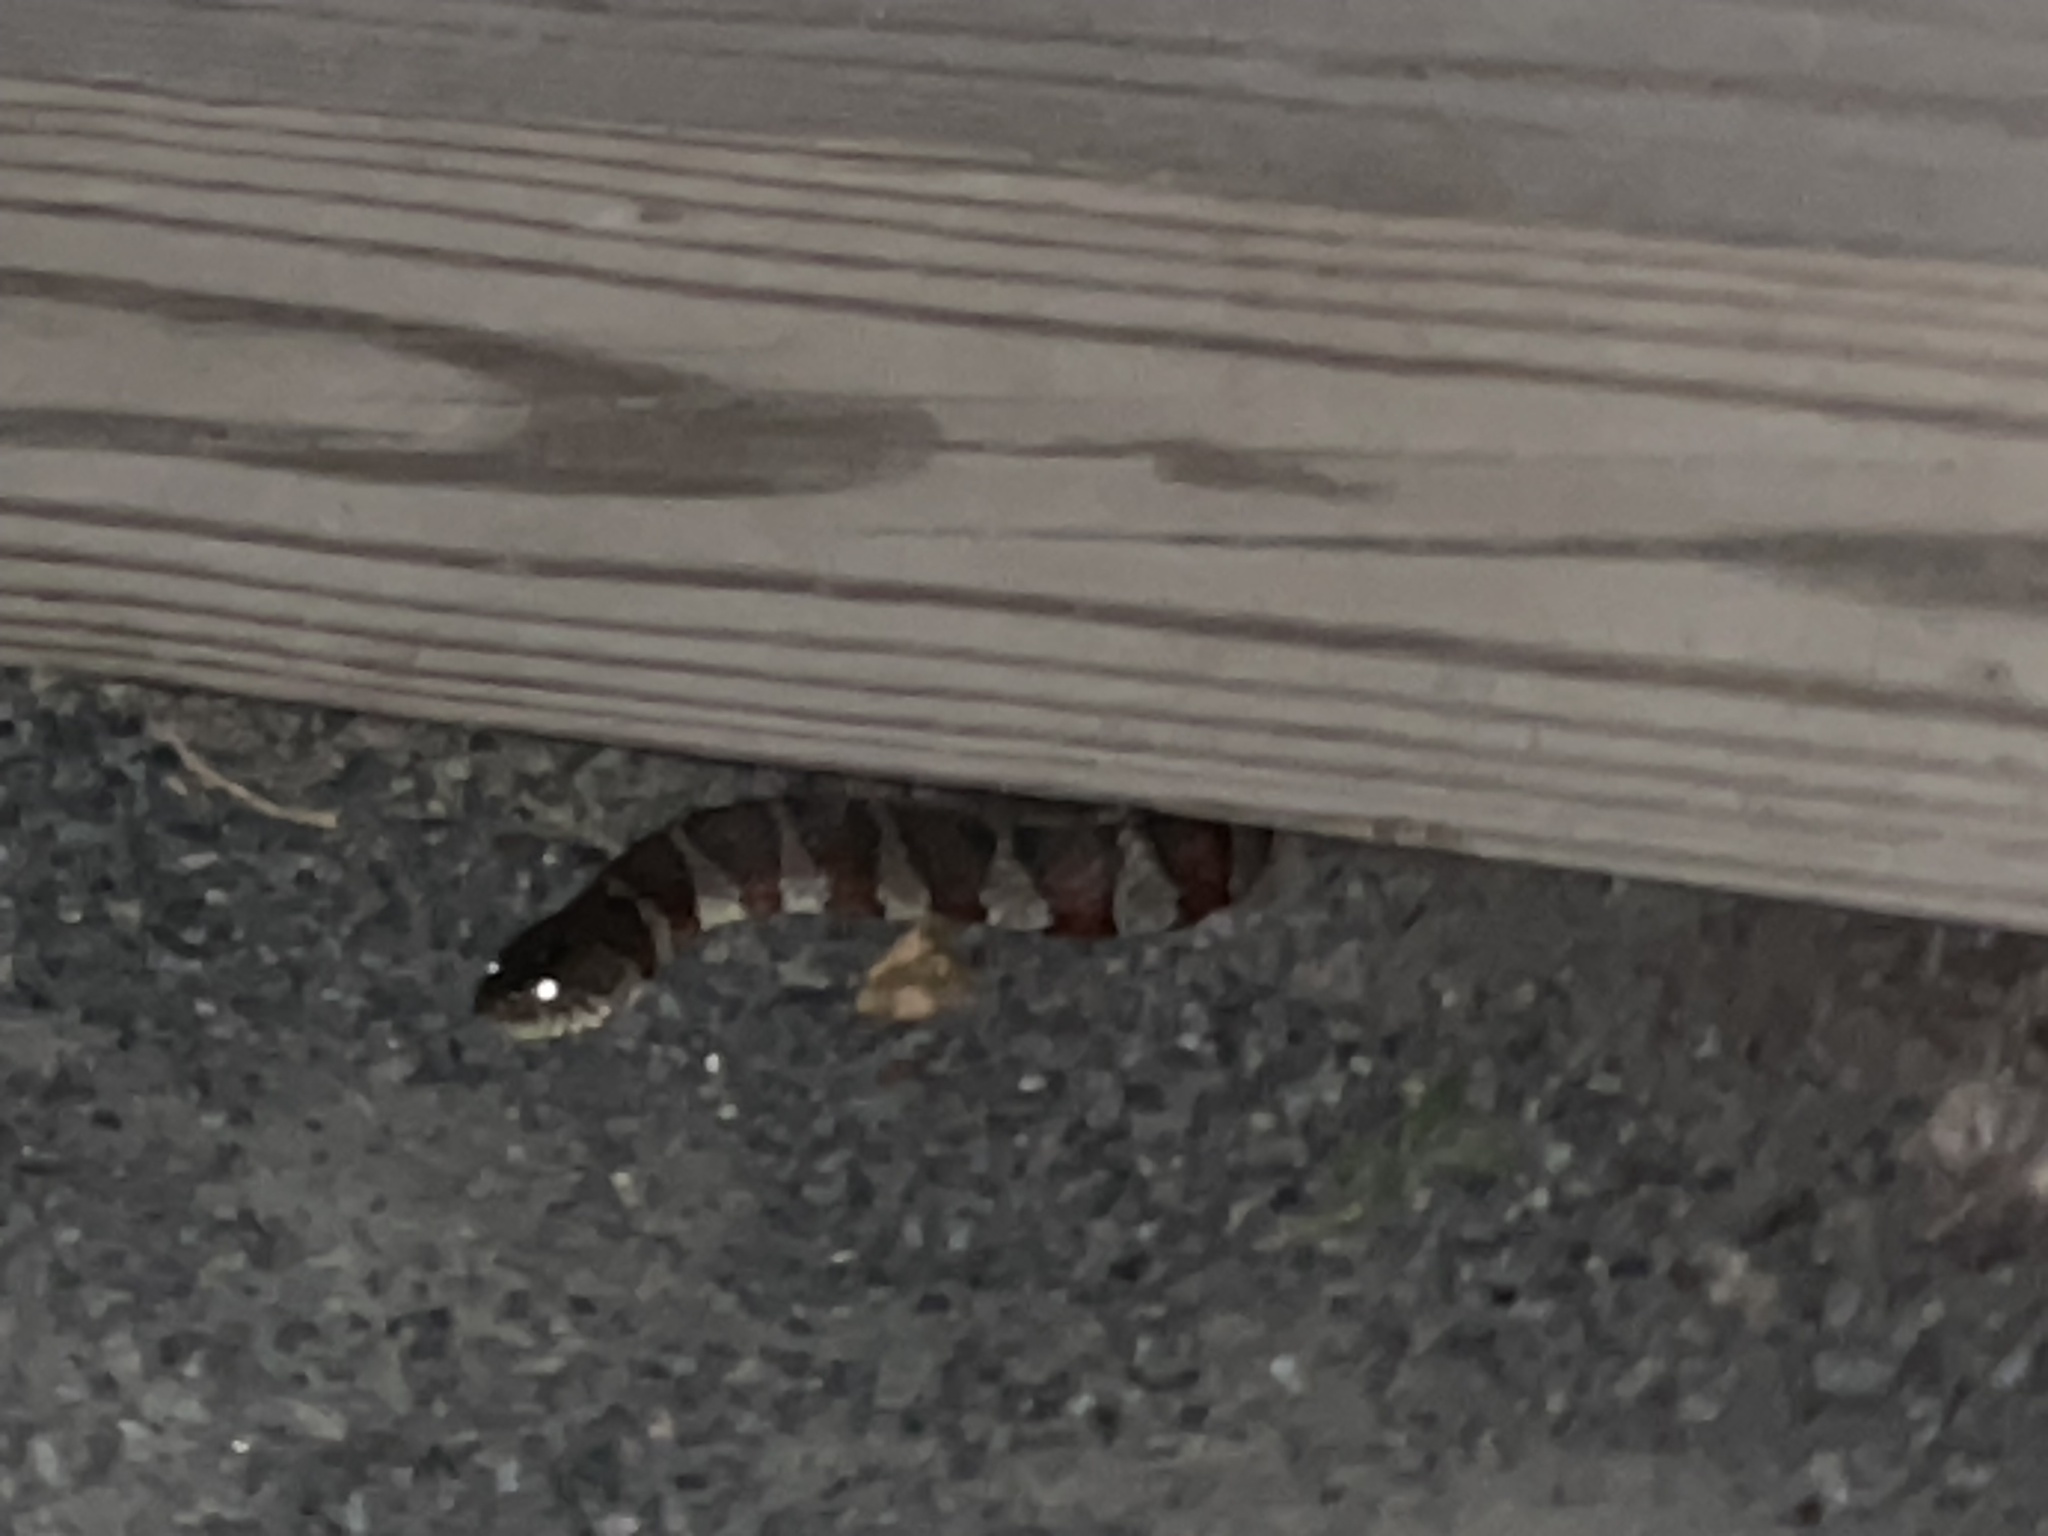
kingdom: Animalia
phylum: Chordata
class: Squamata
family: Colubridae
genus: Nerodia
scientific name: Nerodia sipedon
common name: Northern water snake
